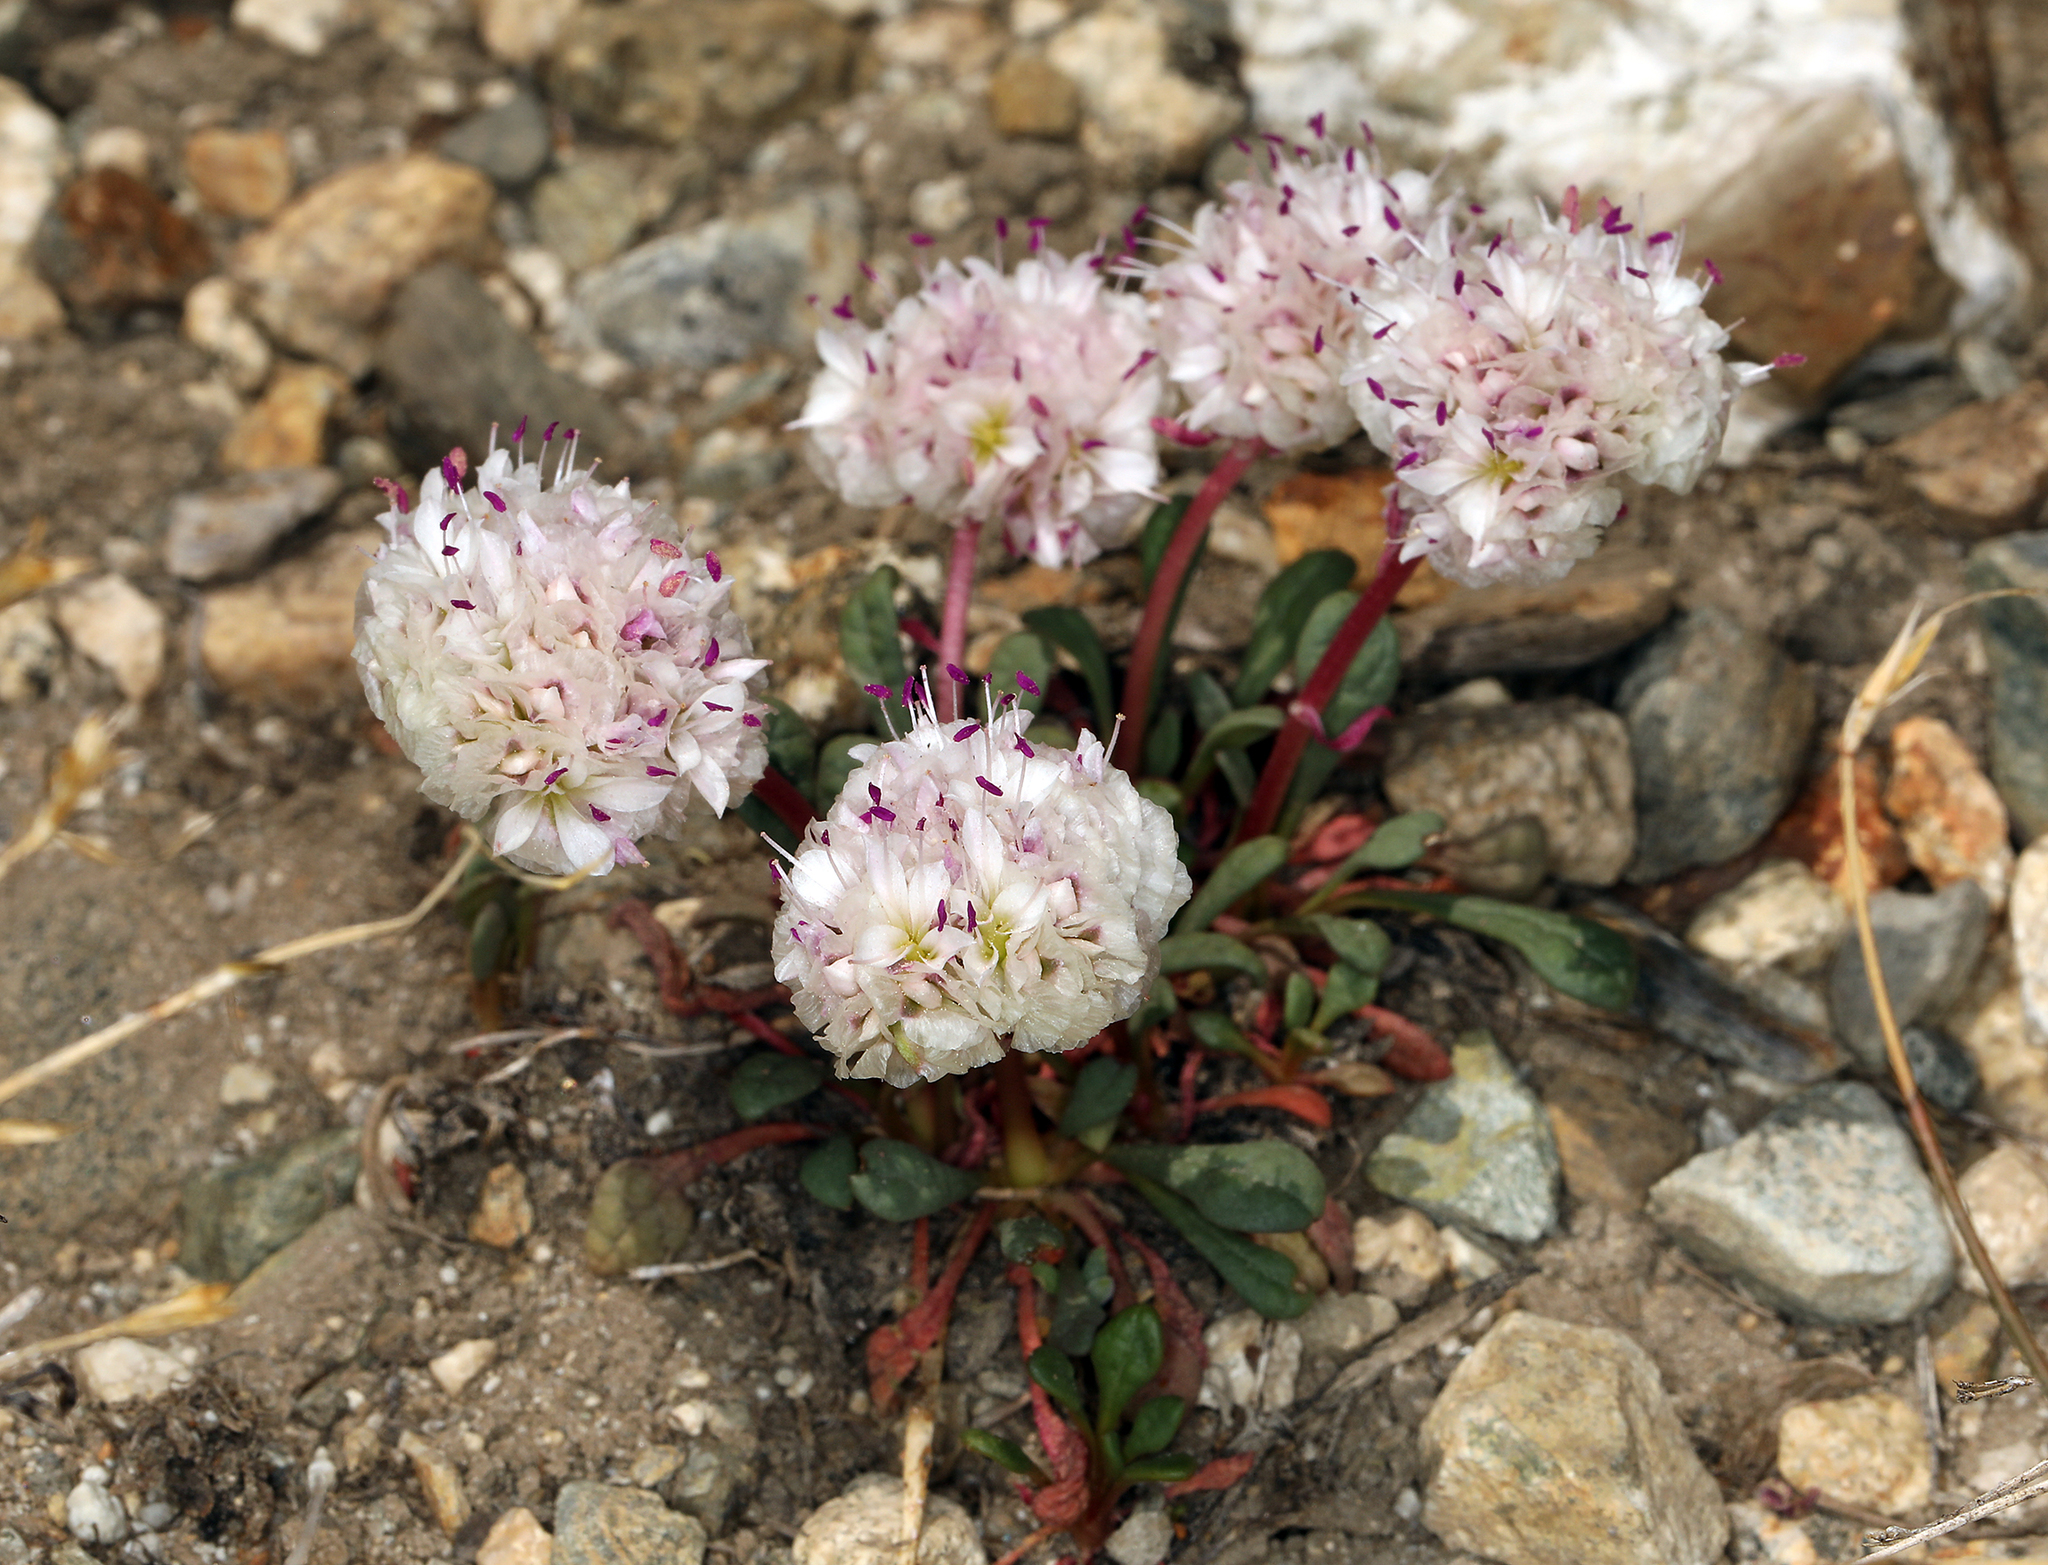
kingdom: Plantae
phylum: Tracheophyta
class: Magnoliopsida
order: Caryophyllales
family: Montiaceae
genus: Calyptridium
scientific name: Calyptridium umbellatum
